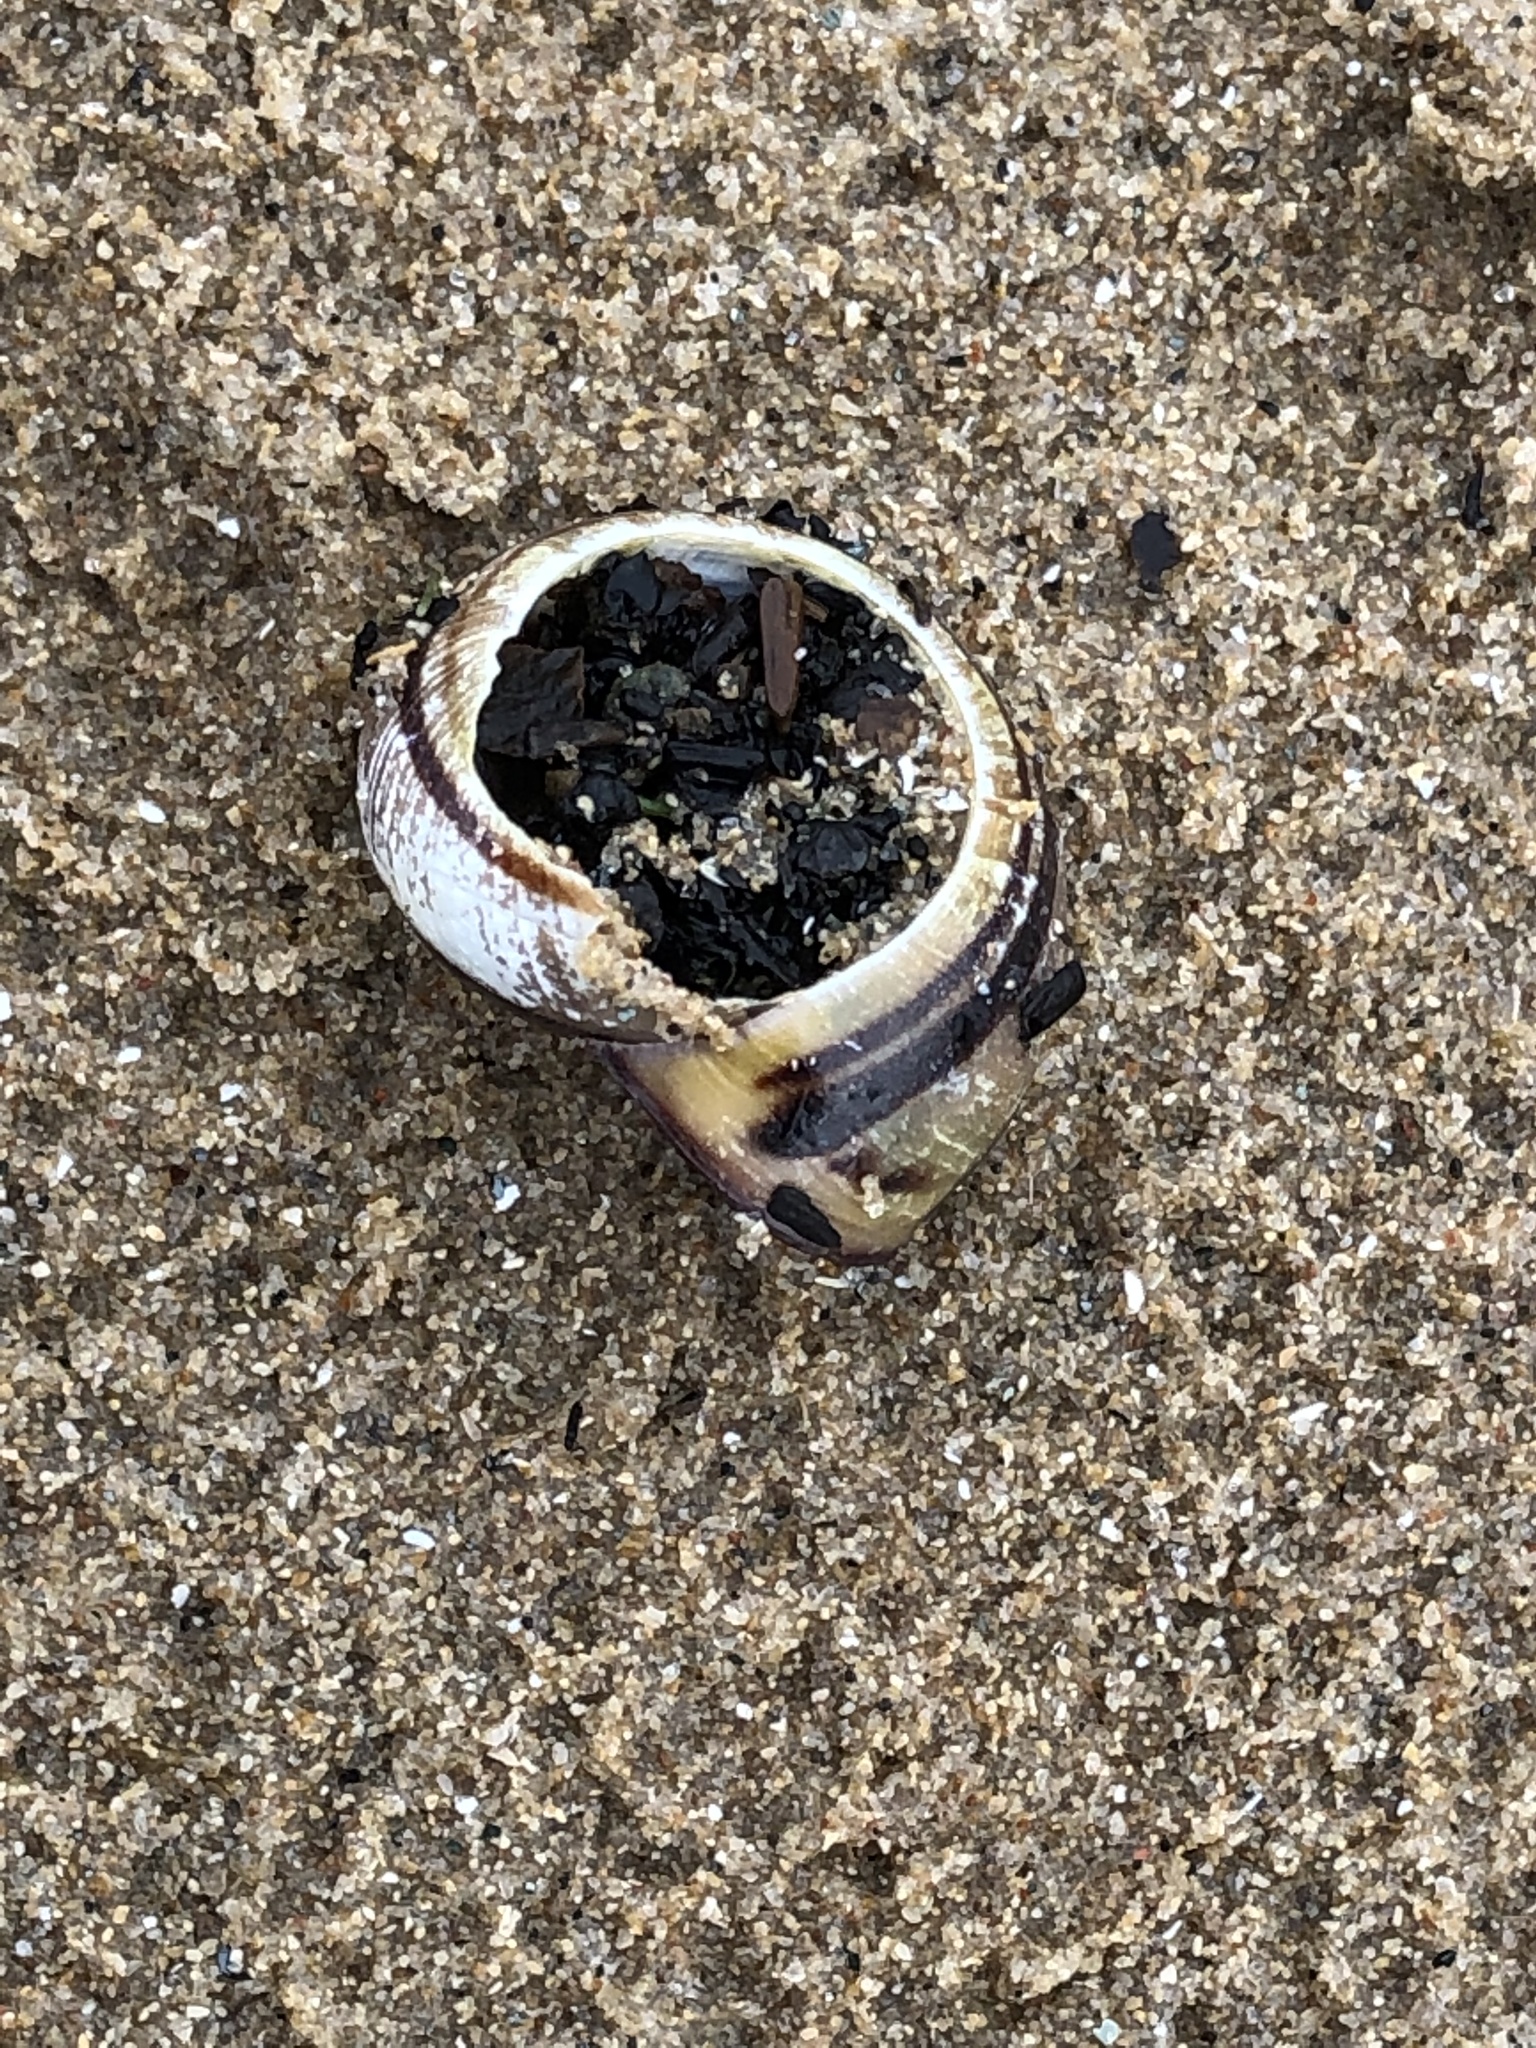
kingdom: Animalia
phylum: Mollusca
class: Gastropoda
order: Stylommatophora
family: Helicidae
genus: Cepaea
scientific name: Cepaea nemoralis
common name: Grovesnail
